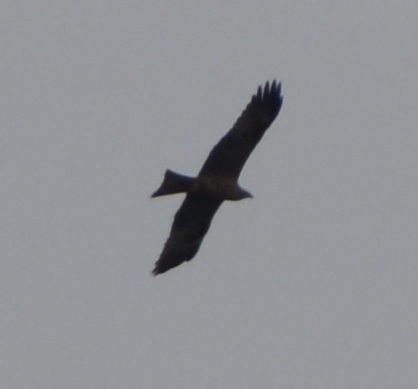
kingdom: Animalia
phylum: Chordata
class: Aves
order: Accipitriformes
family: Accipitridae
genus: Milvus
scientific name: Milvus migrans
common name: Black kite
